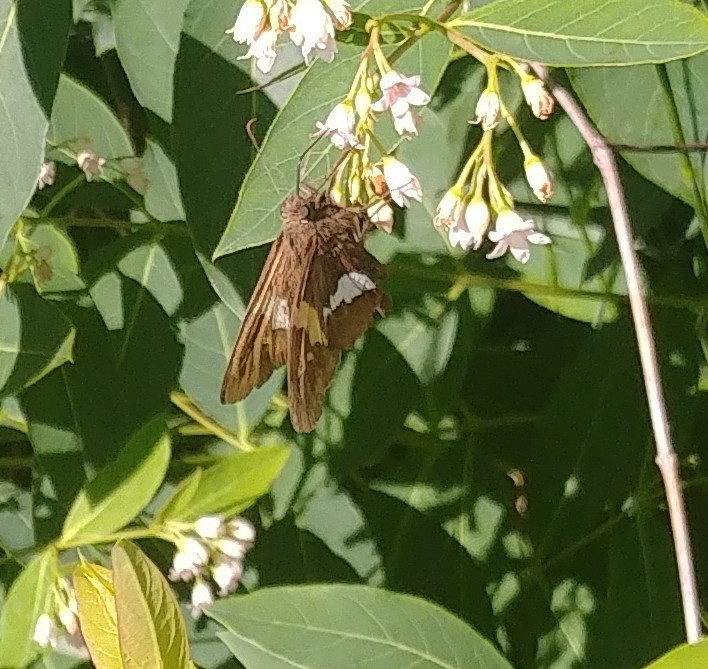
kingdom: Animalia
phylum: Arthropoda
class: Insecta
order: Lepidoptera
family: Hesperiidae
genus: Epargyreus
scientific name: Epargyreus clarus
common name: Silver-spotted skipper
